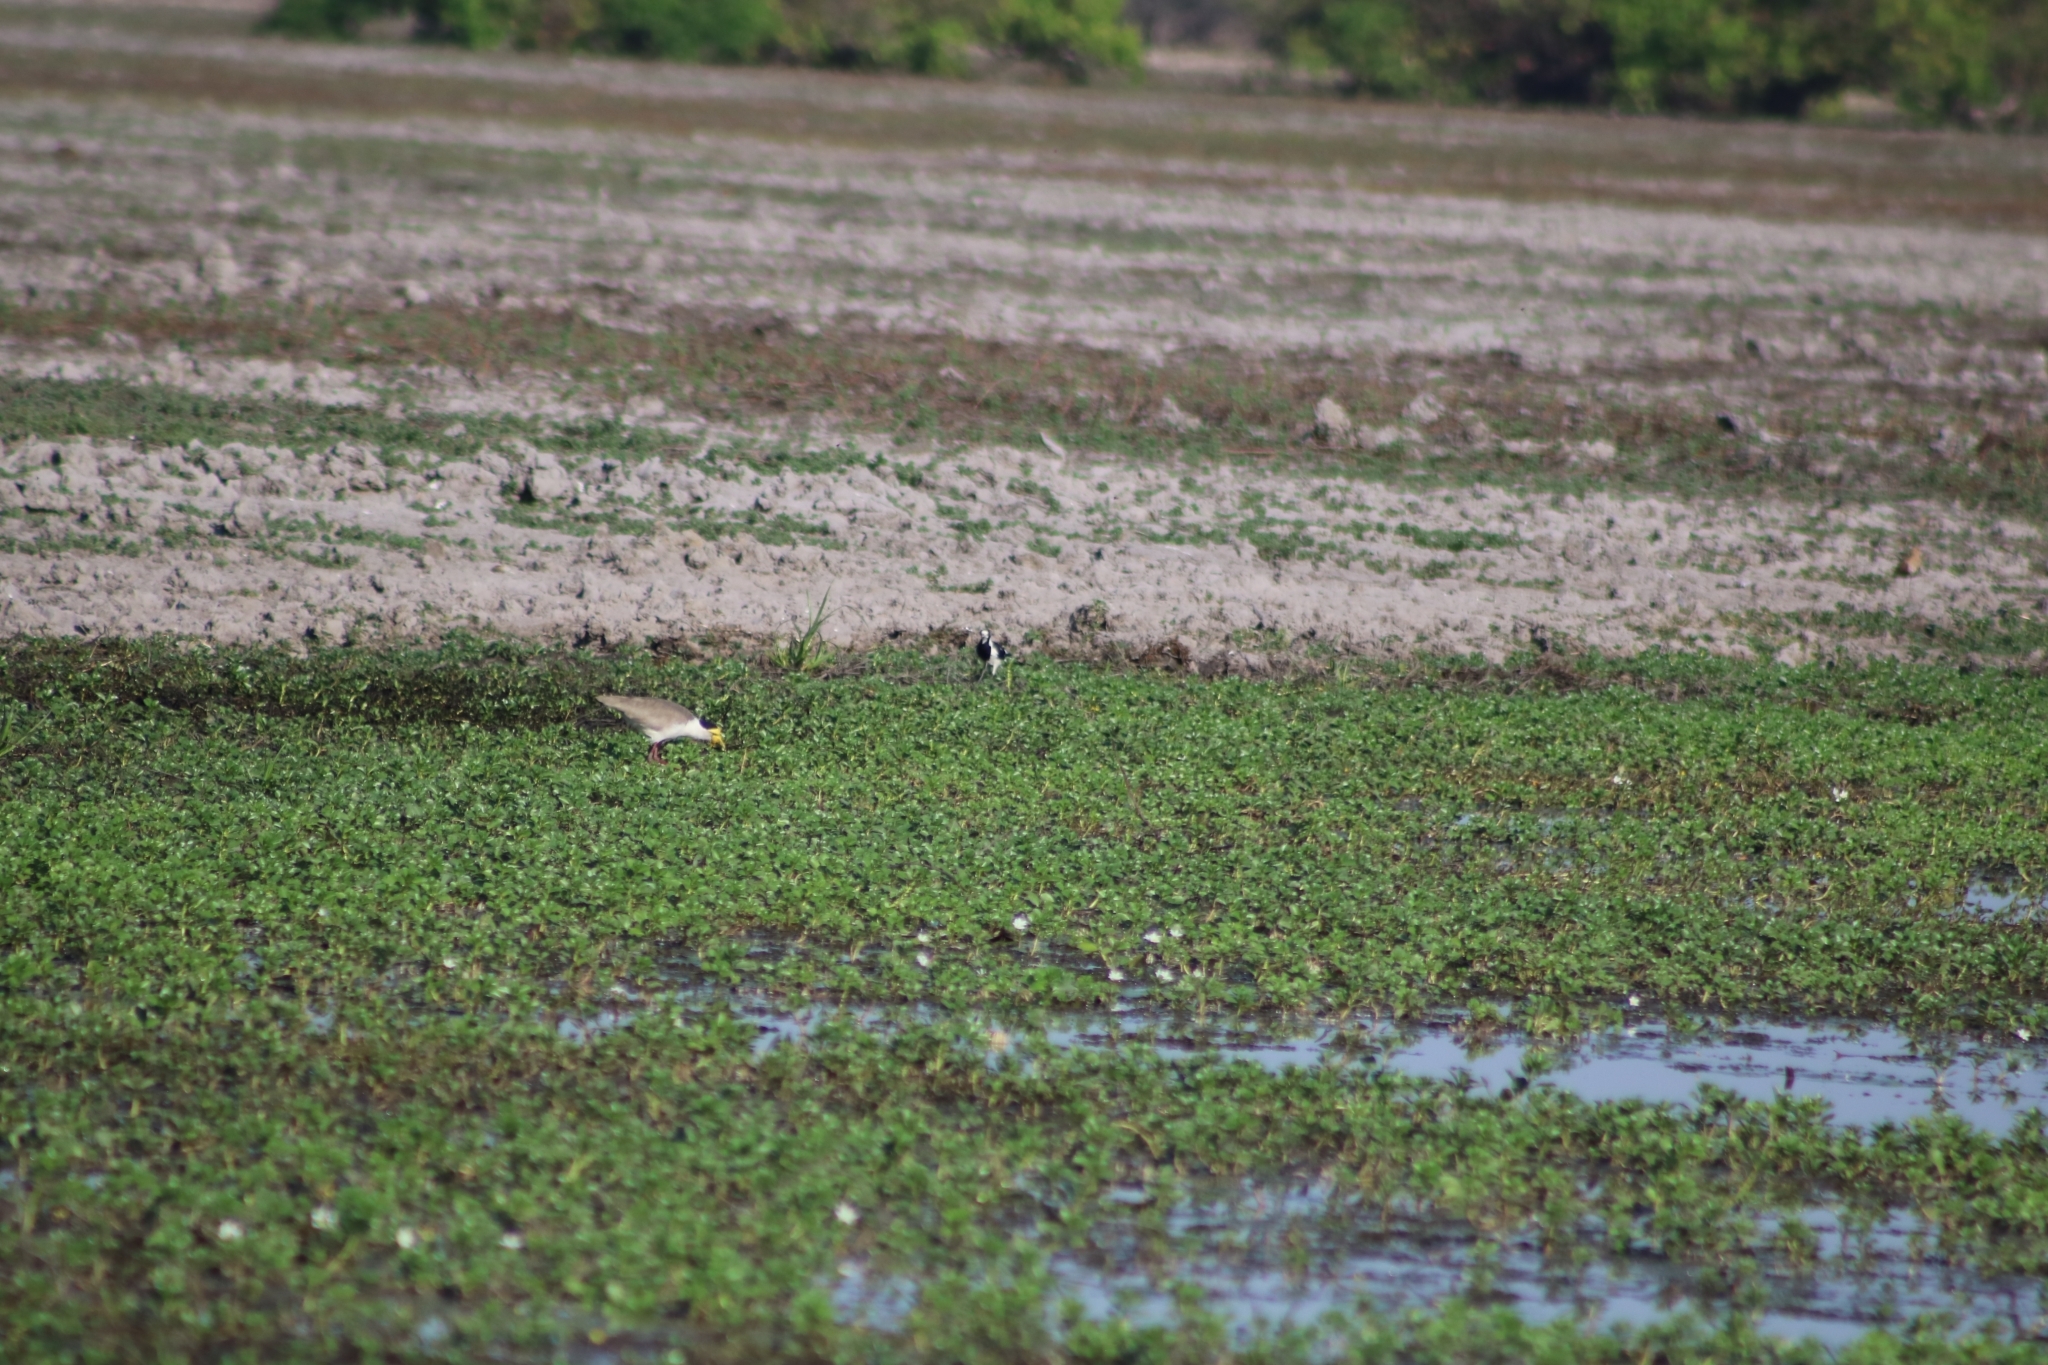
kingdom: Animalia
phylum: Chordata
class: Aves
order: Passeriformes
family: Monarchidae
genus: Grallina
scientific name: Grallina cyanoleuca
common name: Magpie-lark
